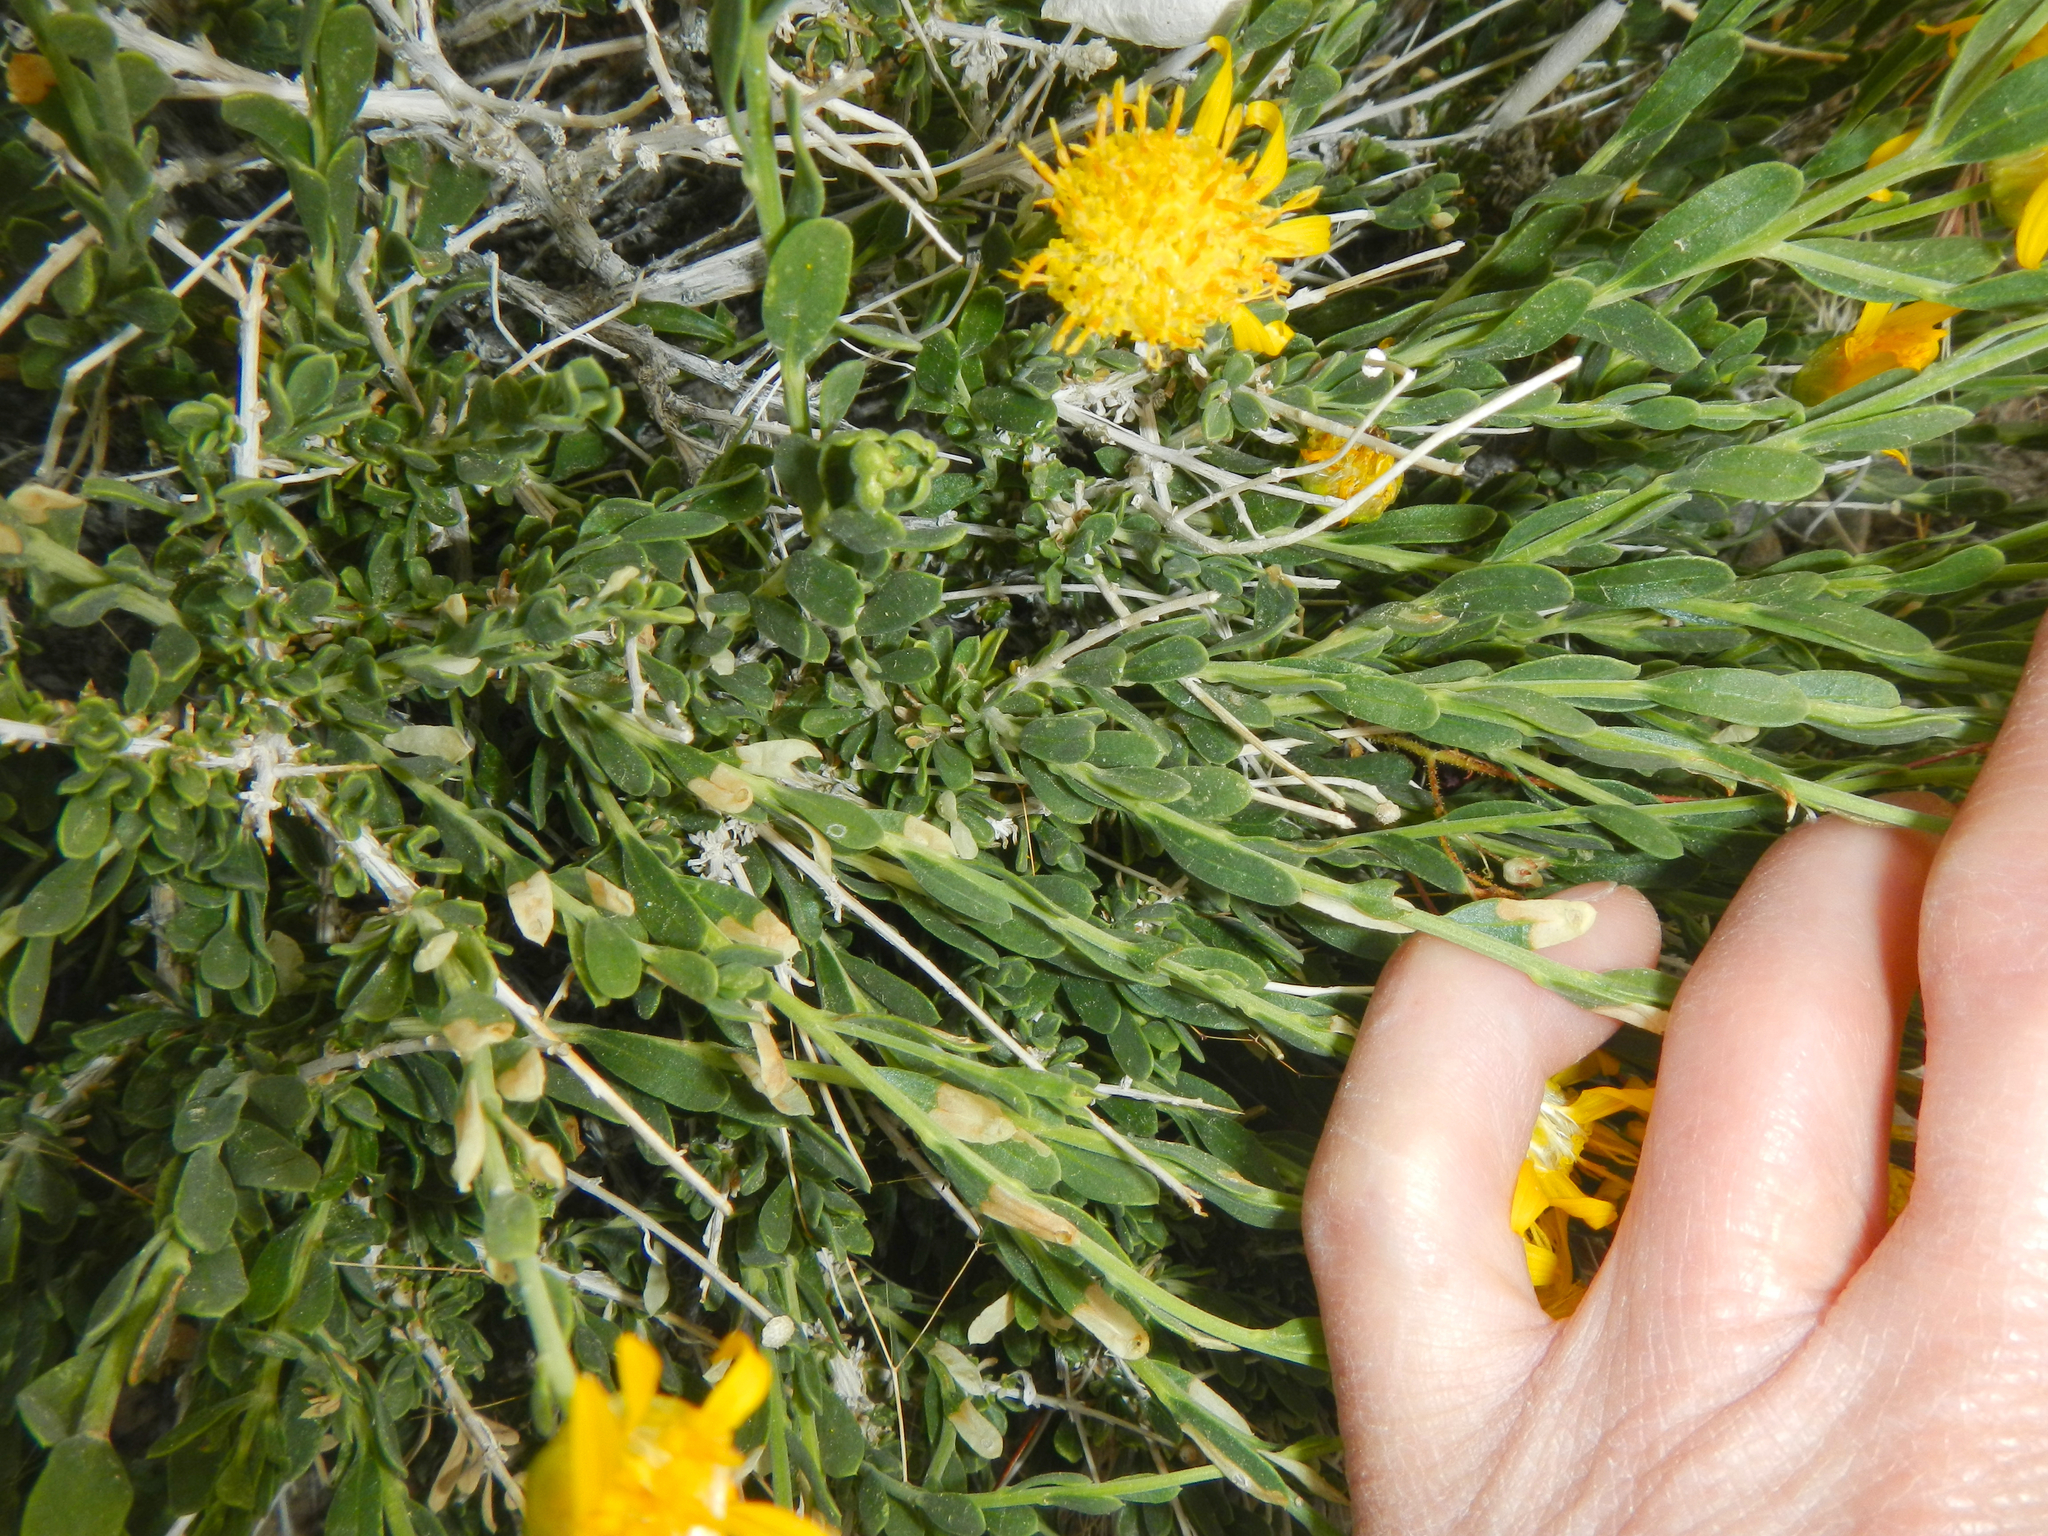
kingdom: Plantae
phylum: Tracheophyta
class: Magnoliopsida
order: Asterales
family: Asteraceae
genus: Acamptopappus
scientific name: Acamptopappus shockleyi
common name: Shockley's goldenhead
